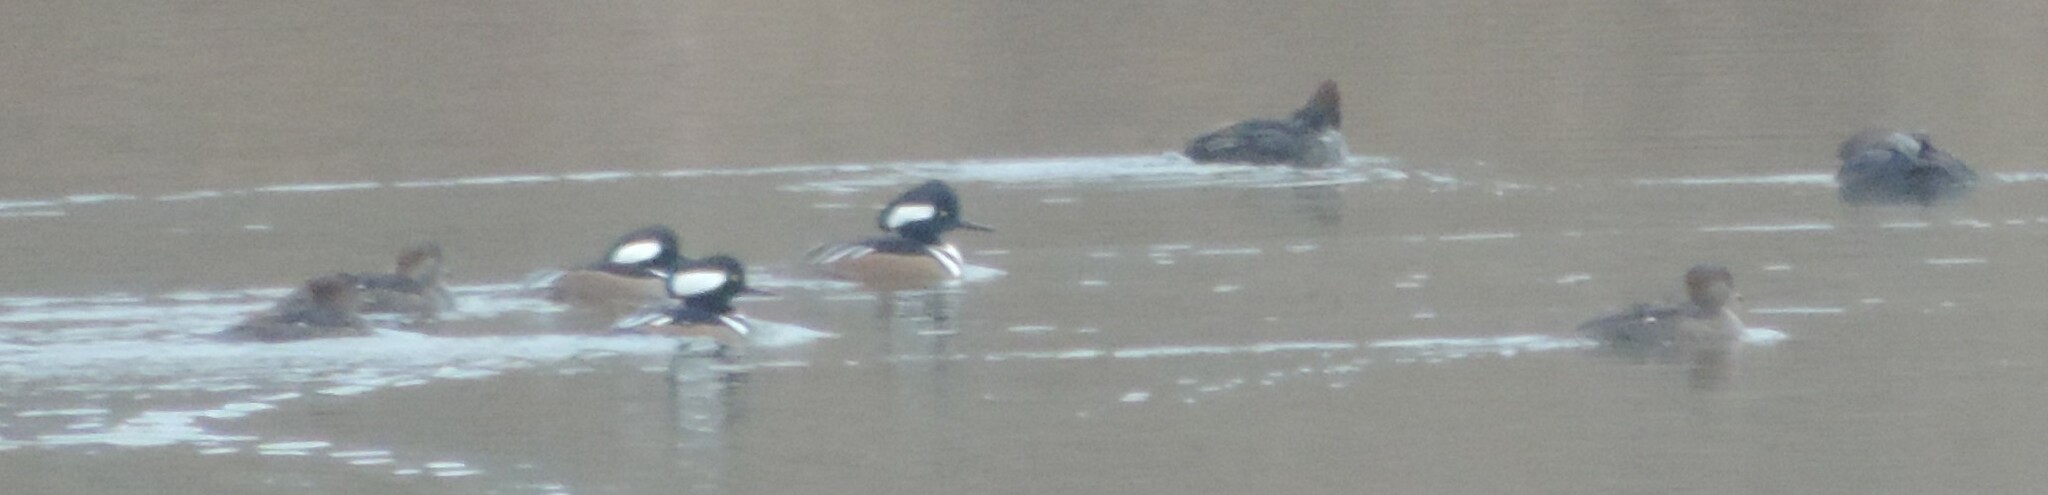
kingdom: Animalia
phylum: Chordata
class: Aves
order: Anseriformes
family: Anatidae
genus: Lophodytes
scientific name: Lophodytes cucullatus
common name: Hooded merganser
